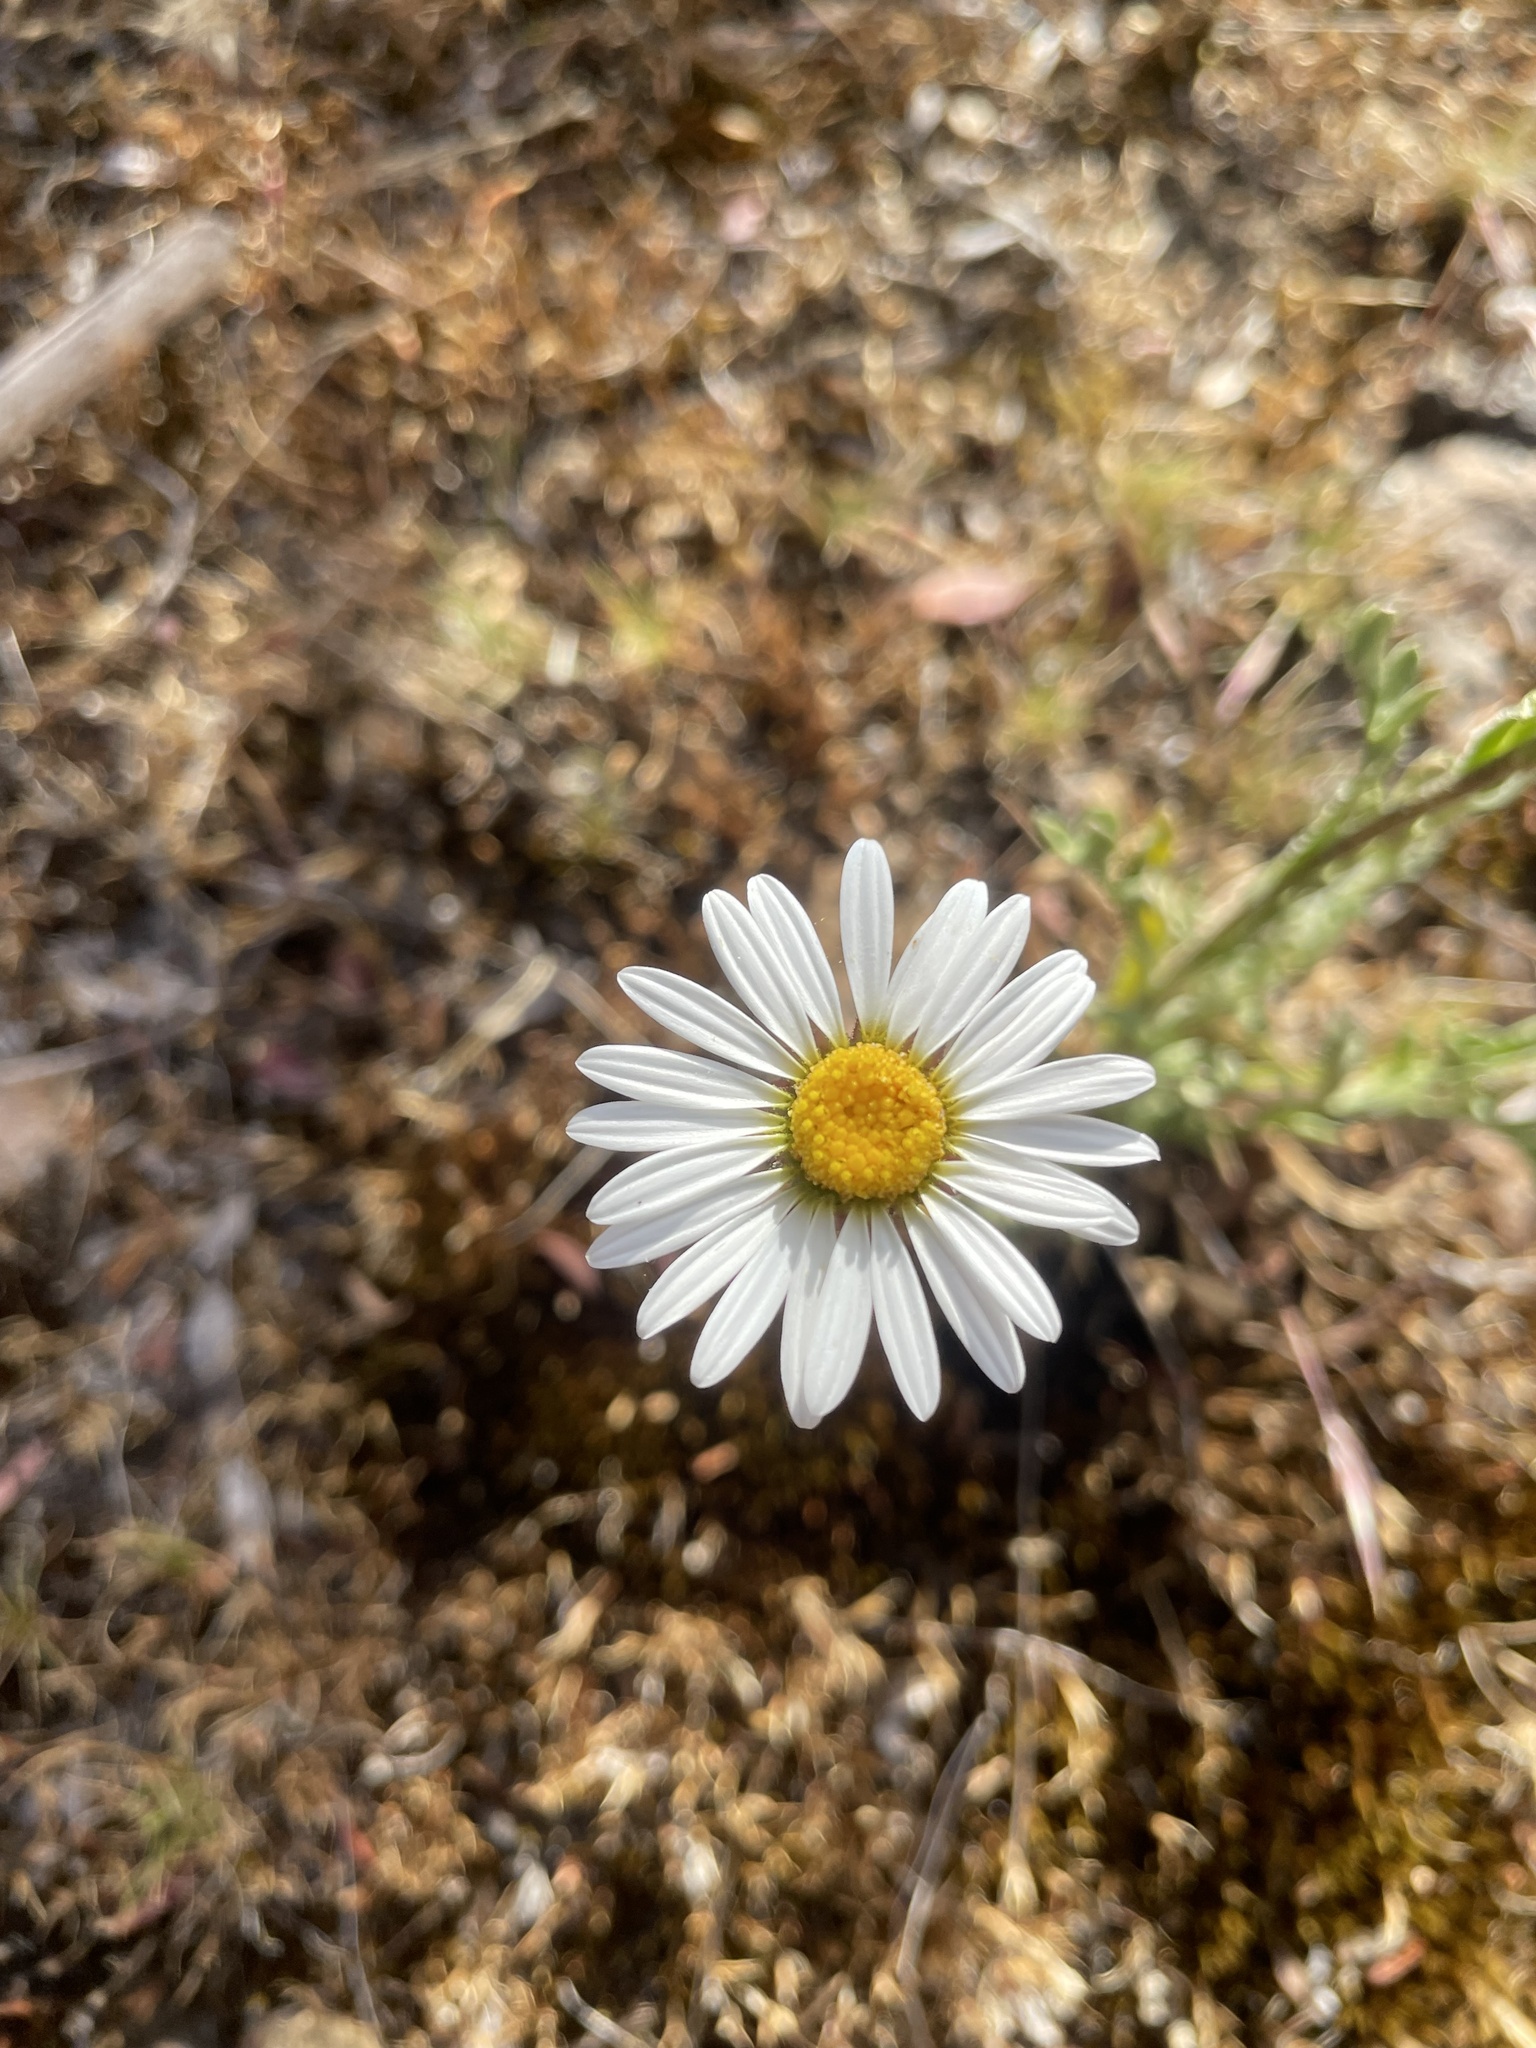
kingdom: Plantae
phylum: Tracheophyta
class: Magnoliopsida
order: Asterales
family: Asteraceae
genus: Brachyscome
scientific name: Brachyscome diversifolia
